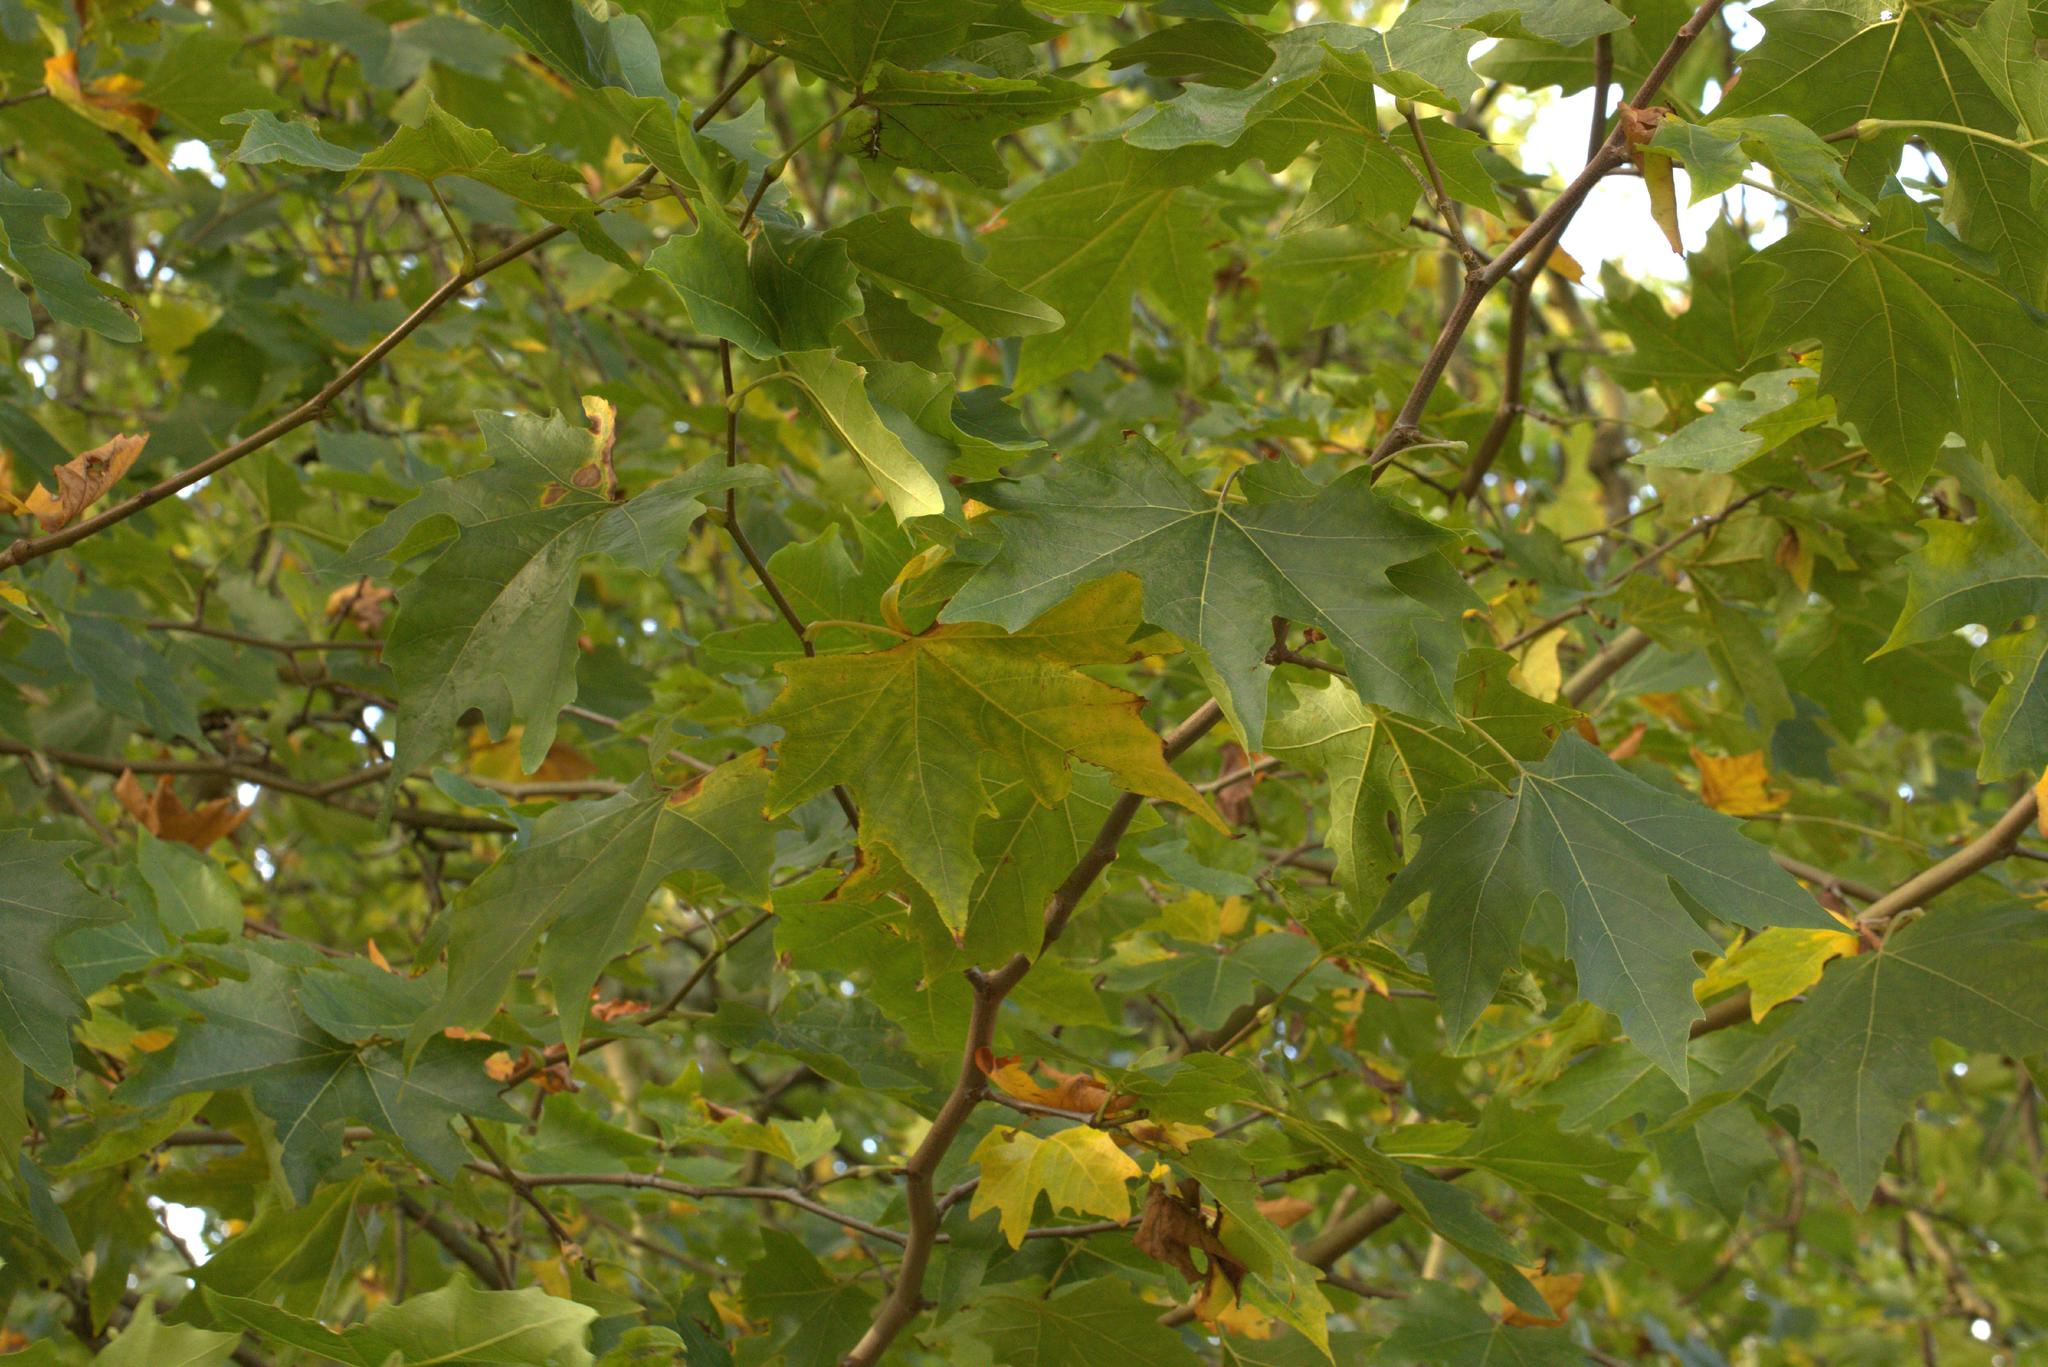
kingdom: Plantae
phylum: Tracheophyta
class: Magnoliopsida
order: Proteales
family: Platanaceae
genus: Platanus
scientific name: Platanus hispanica
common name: London plane
